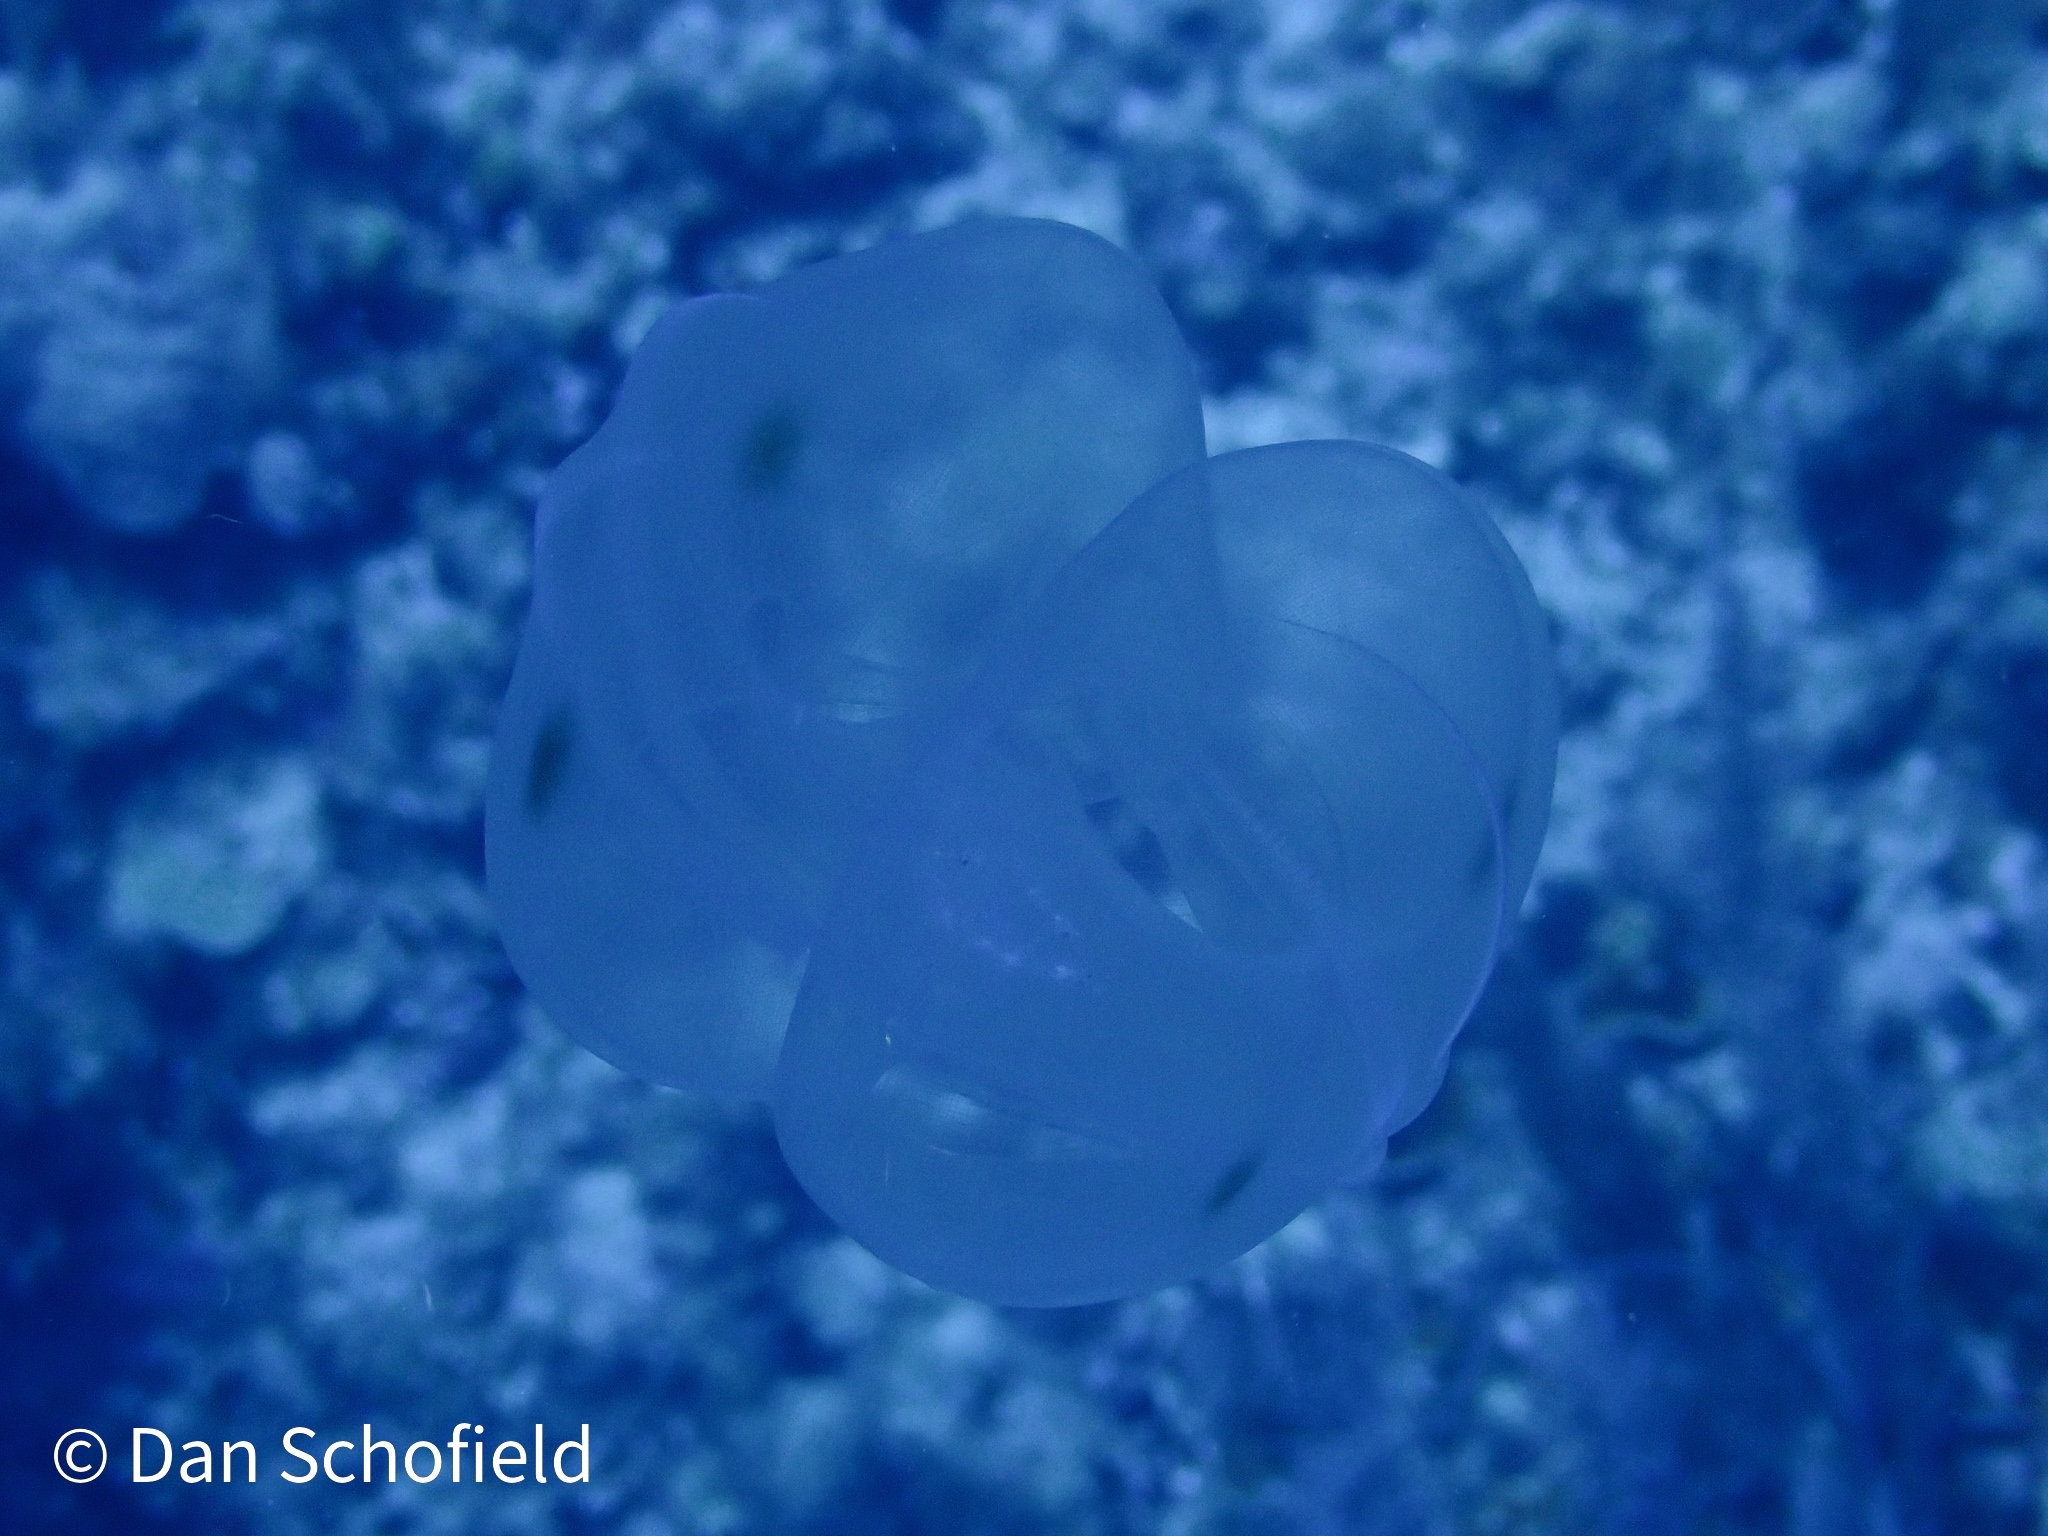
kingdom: Animalia
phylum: Ctenophora
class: Tentaculata
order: Lobata
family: Ocyropsidae
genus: Ocyropsis
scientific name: Ocyropsis maculata
